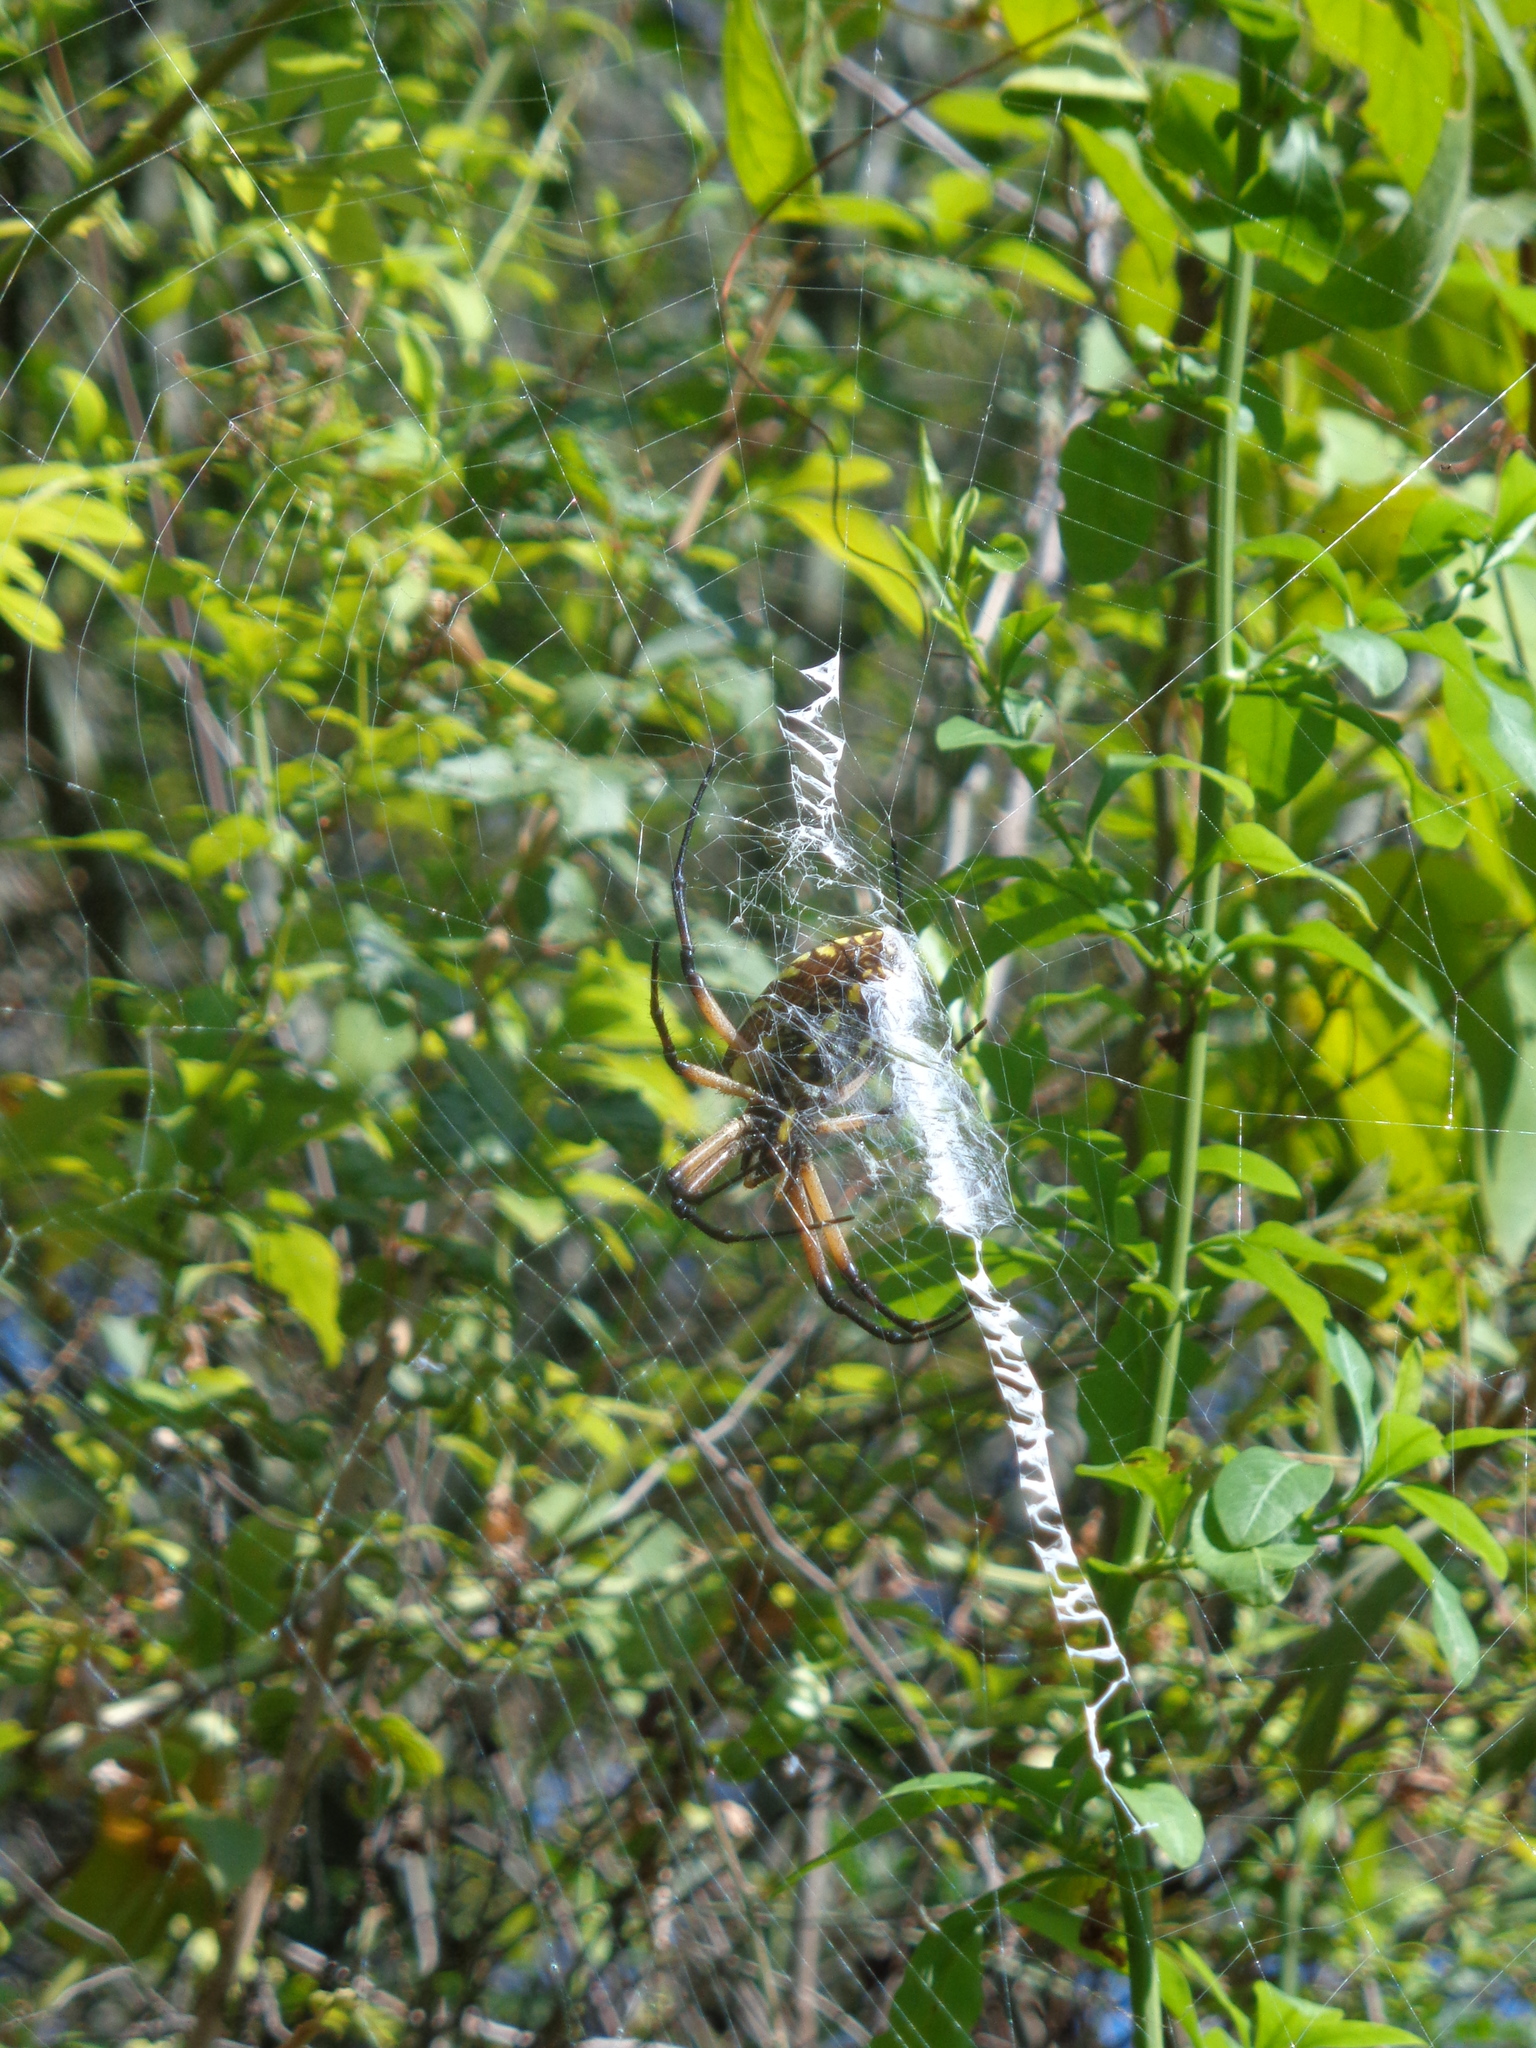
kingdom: Animalia
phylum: Arthropoda
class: Arachnida
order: Araneae
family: Araneidae
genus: Argiope
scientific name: Argiope aurantia
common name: Orb weavers
